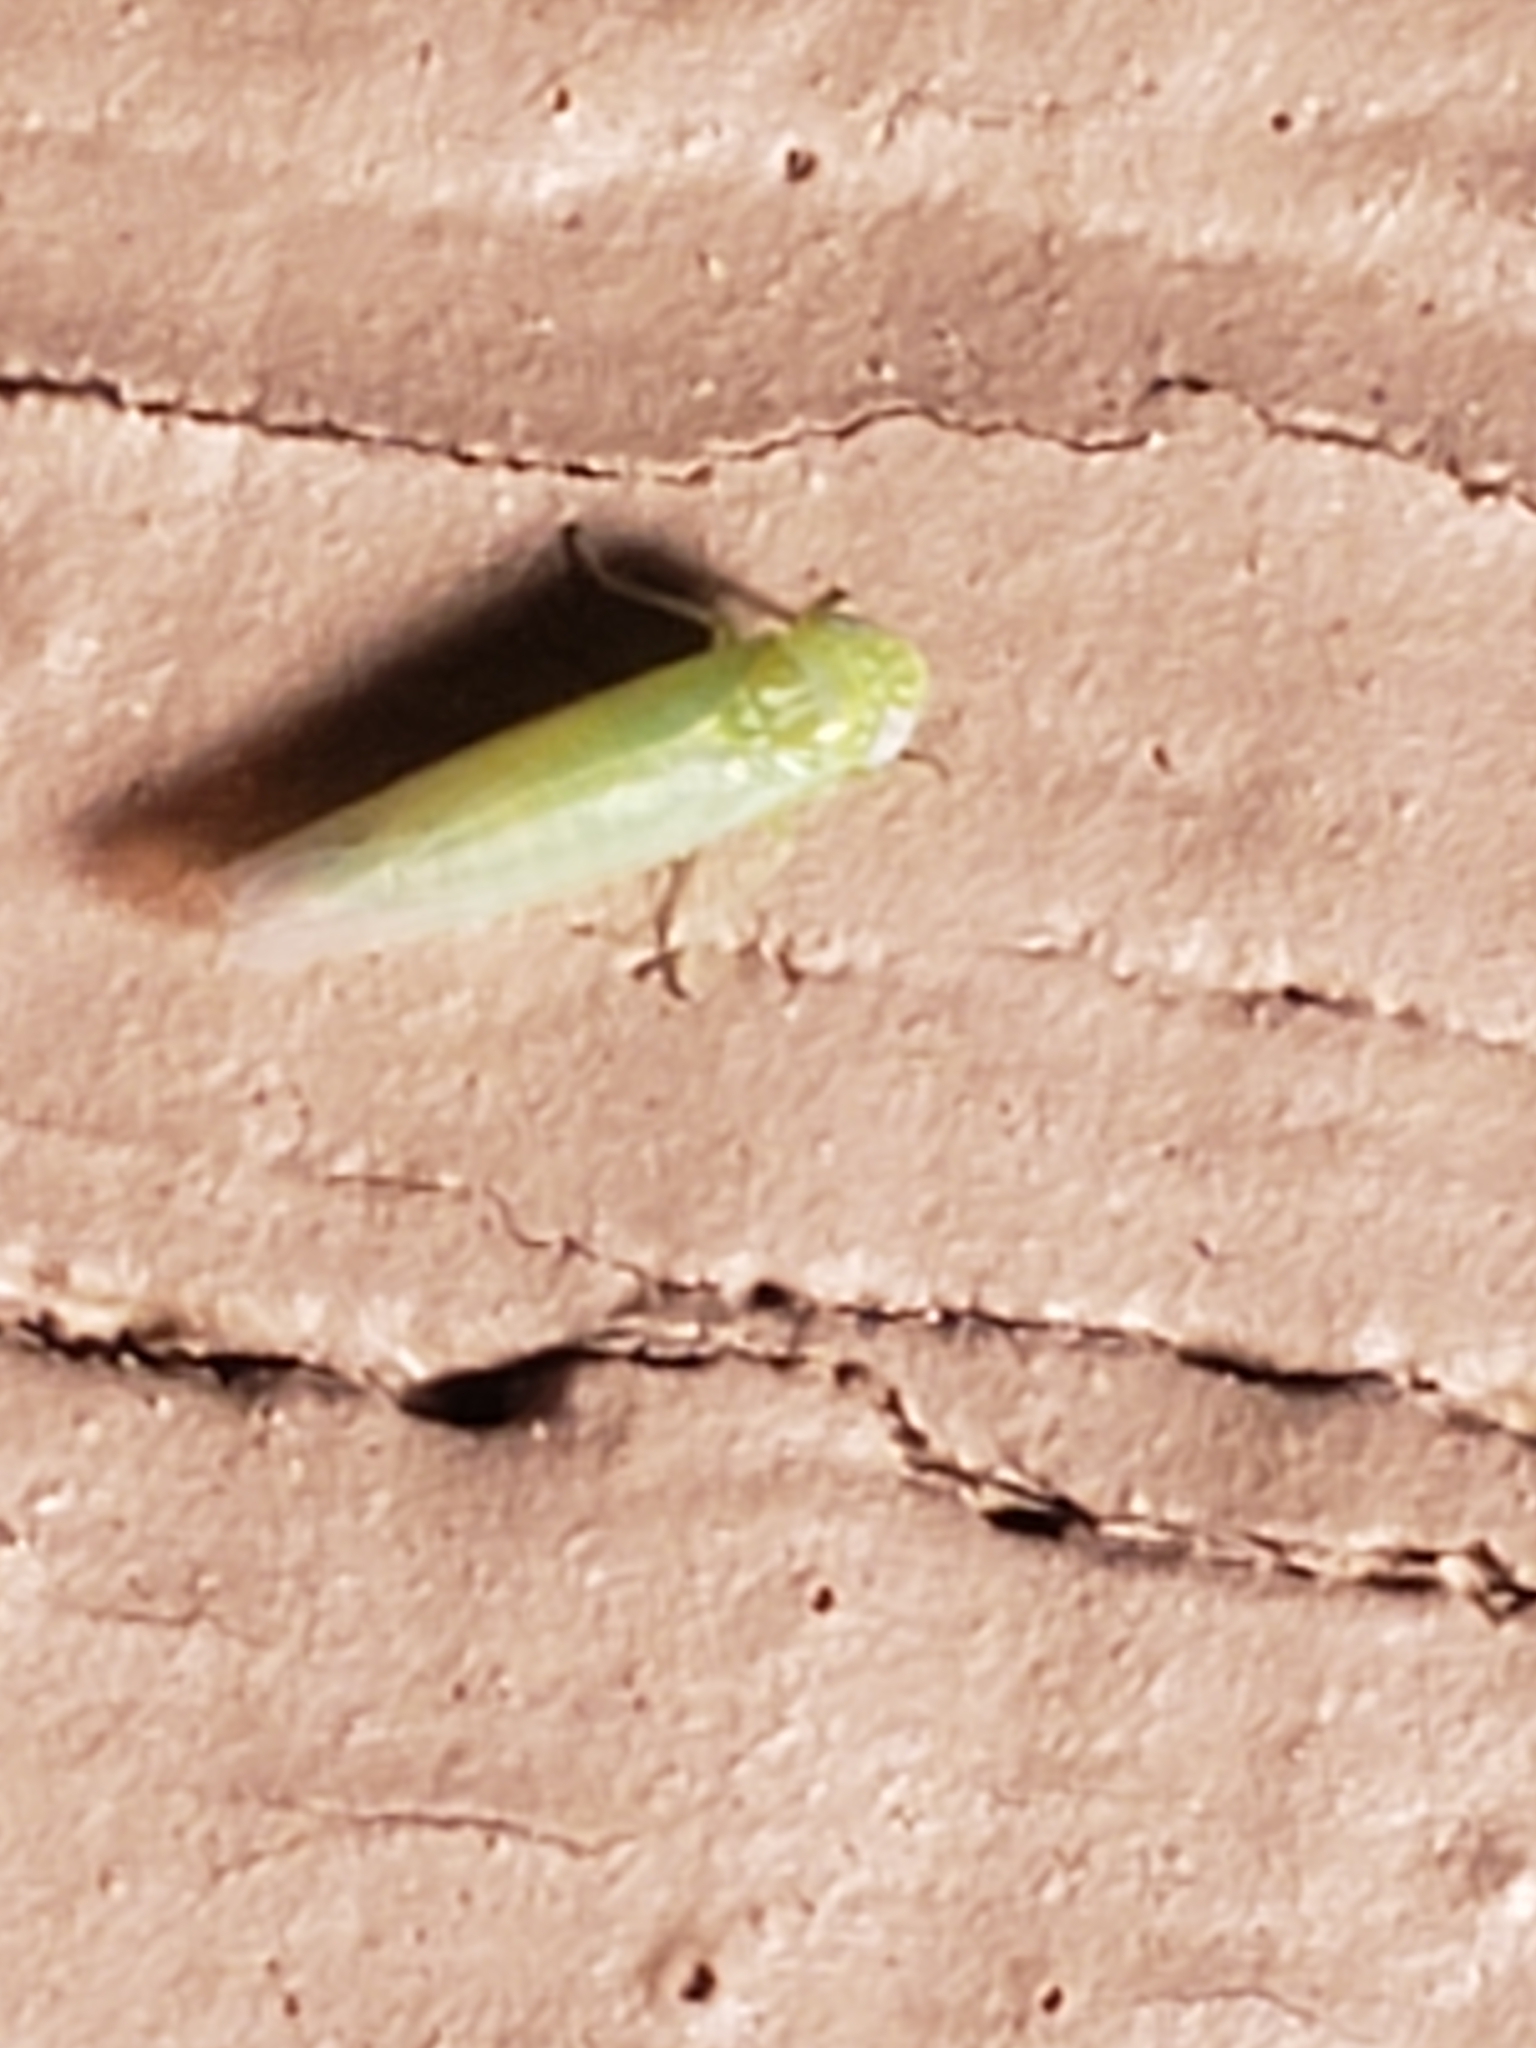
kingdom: Animalia
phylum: Arthropoda
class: Insecta
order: Hemiptera
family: Cicadellidae
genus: Empoasca
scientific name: Empoasca fabae
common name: Potato leafhopper
